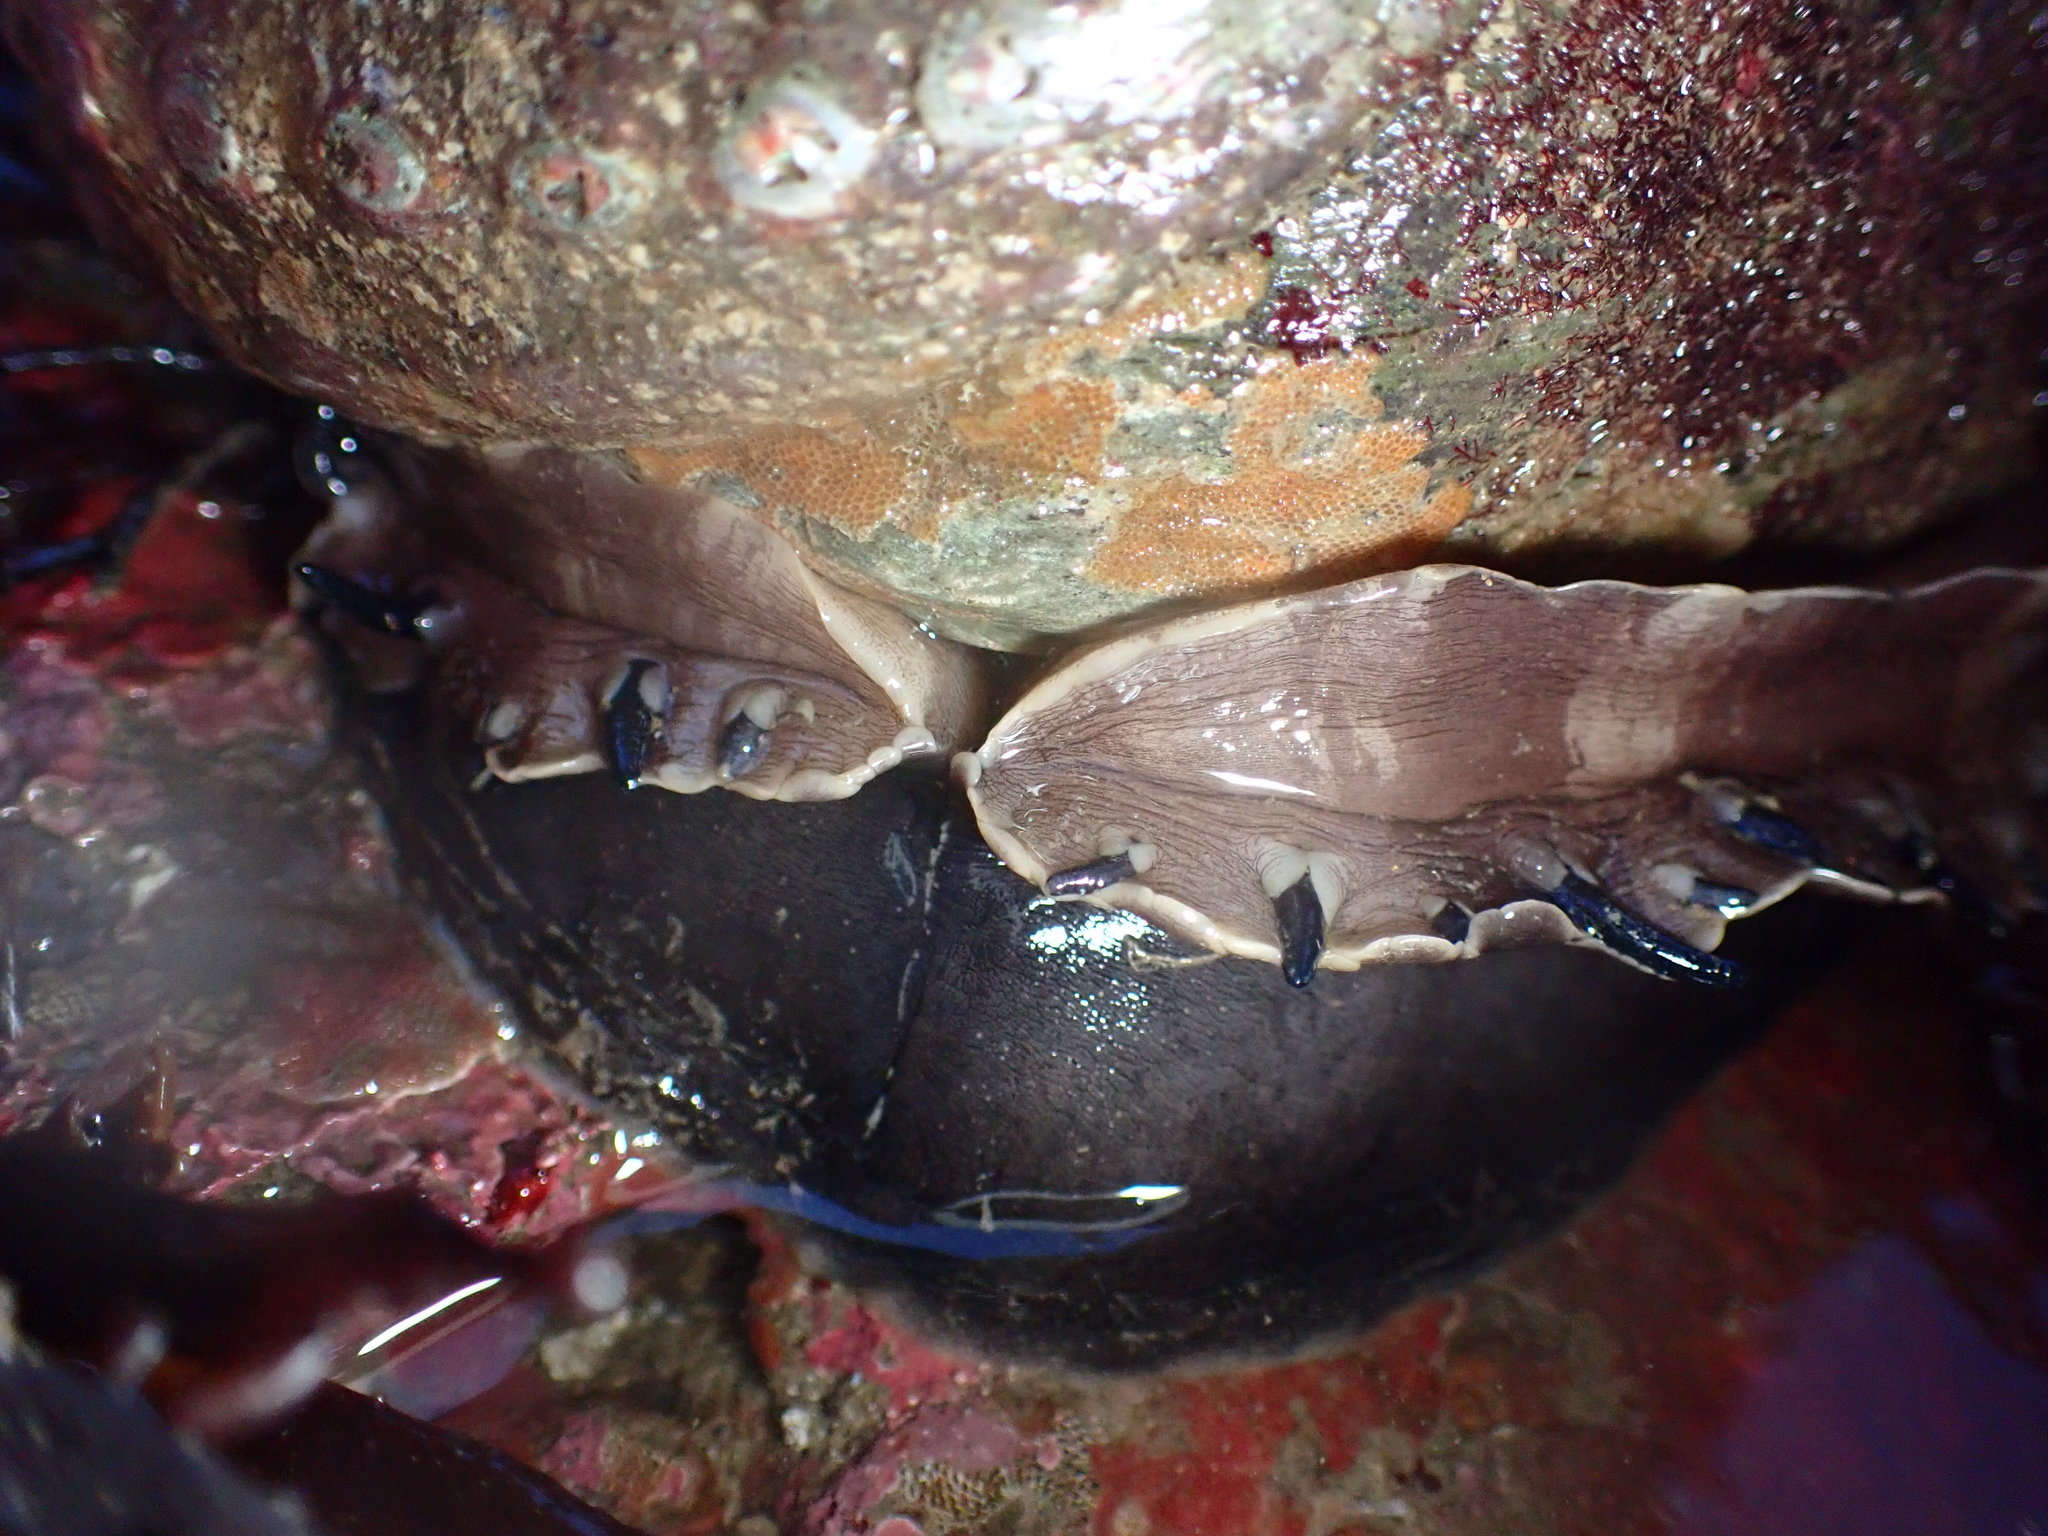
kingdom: Animalia
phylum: Mollusca
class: Gastropoda
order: Lepetellida
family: Haliotidae
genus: Haliotis
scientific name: Haliotis rufescens
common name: Red abalone
